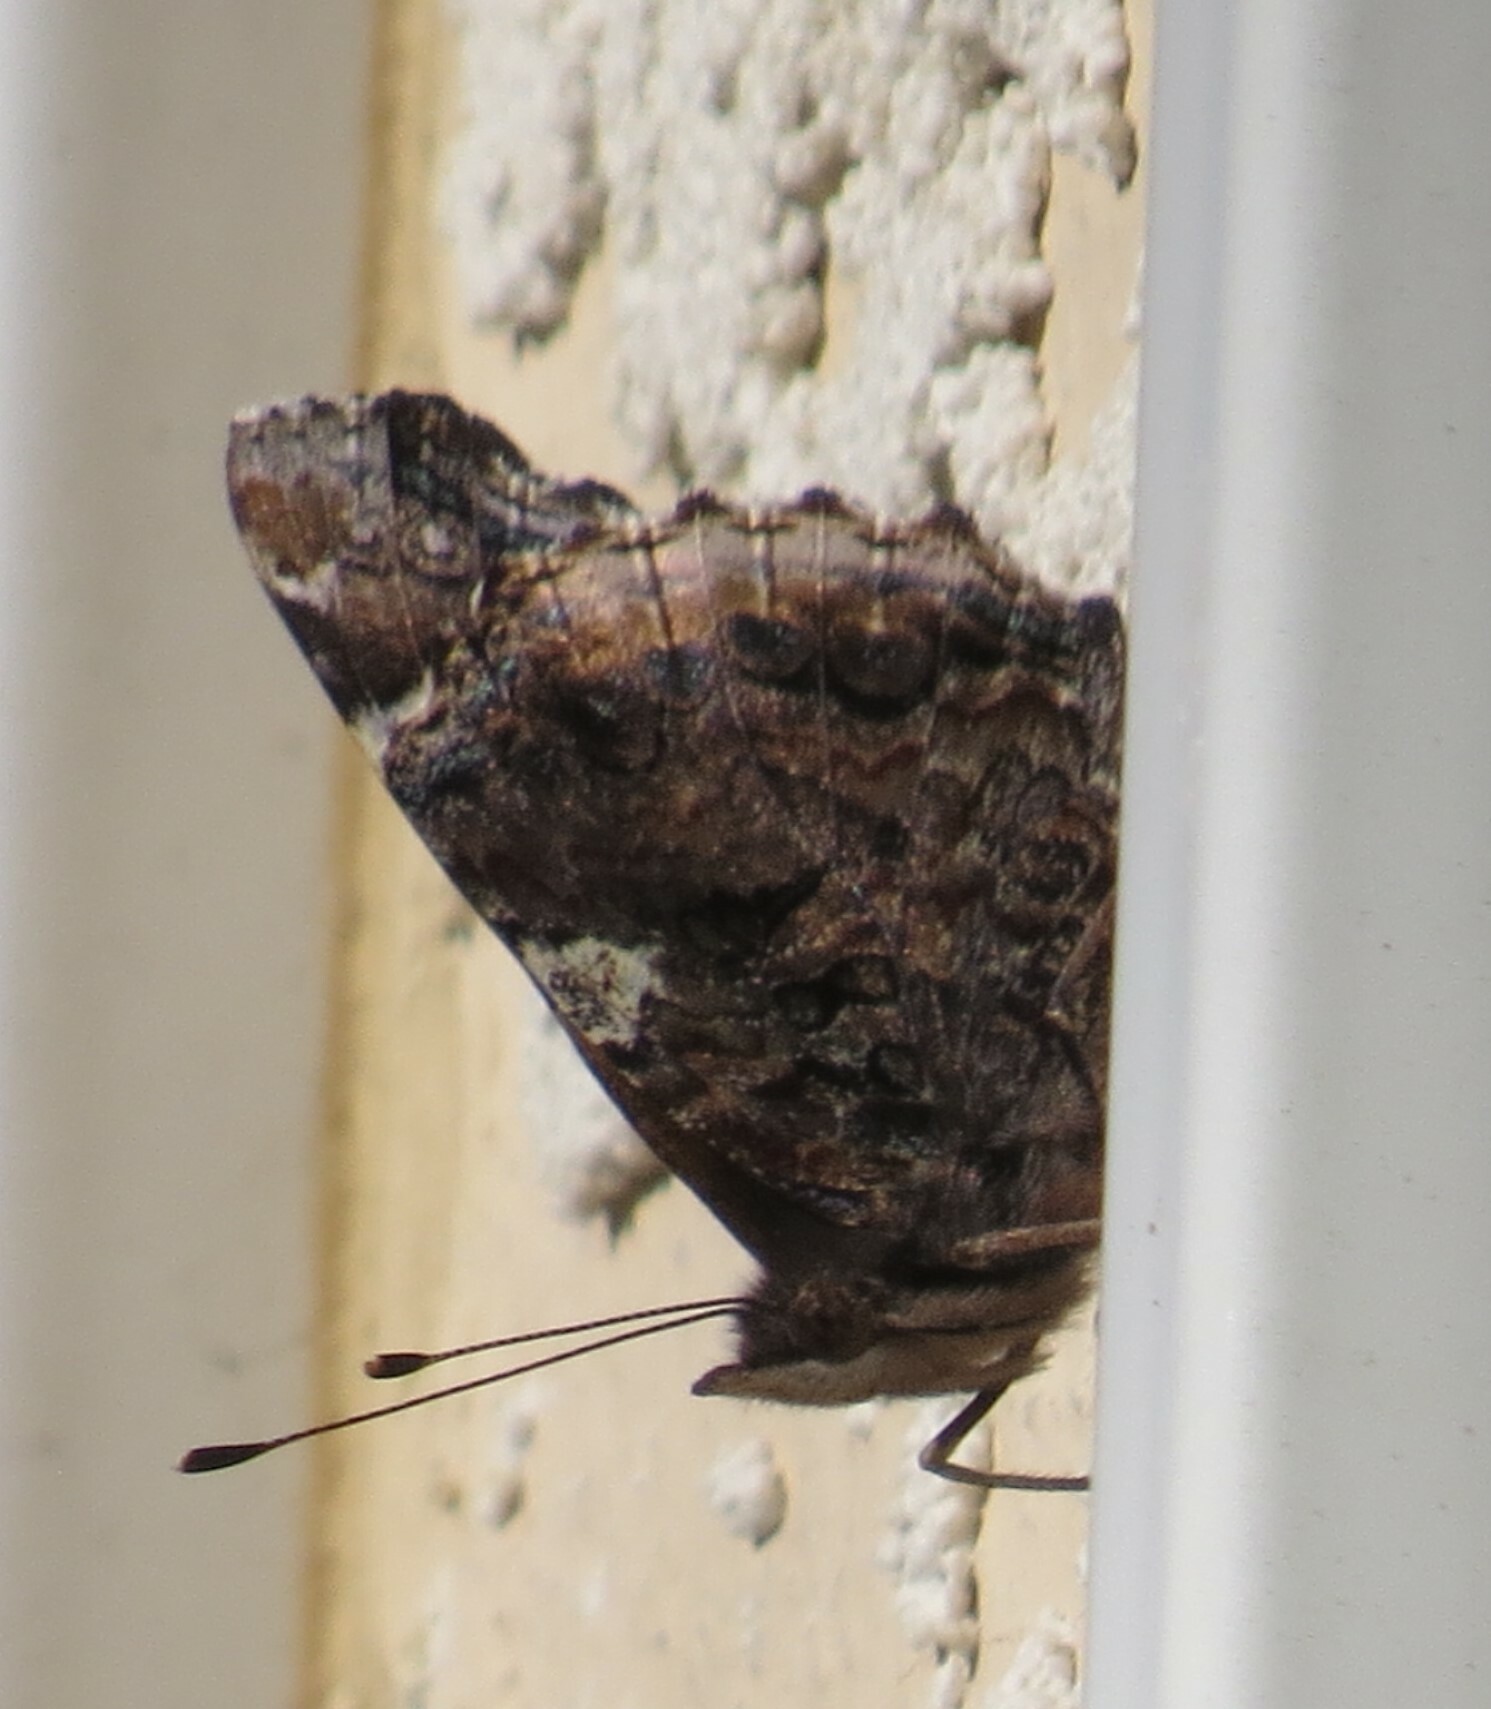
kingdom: Animalia
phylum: Arthropoda
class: Insecta
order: Lepidoptera
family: Nymphalidae
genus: Vanessa
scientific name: Vanessa atalanta
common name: Red admiral
